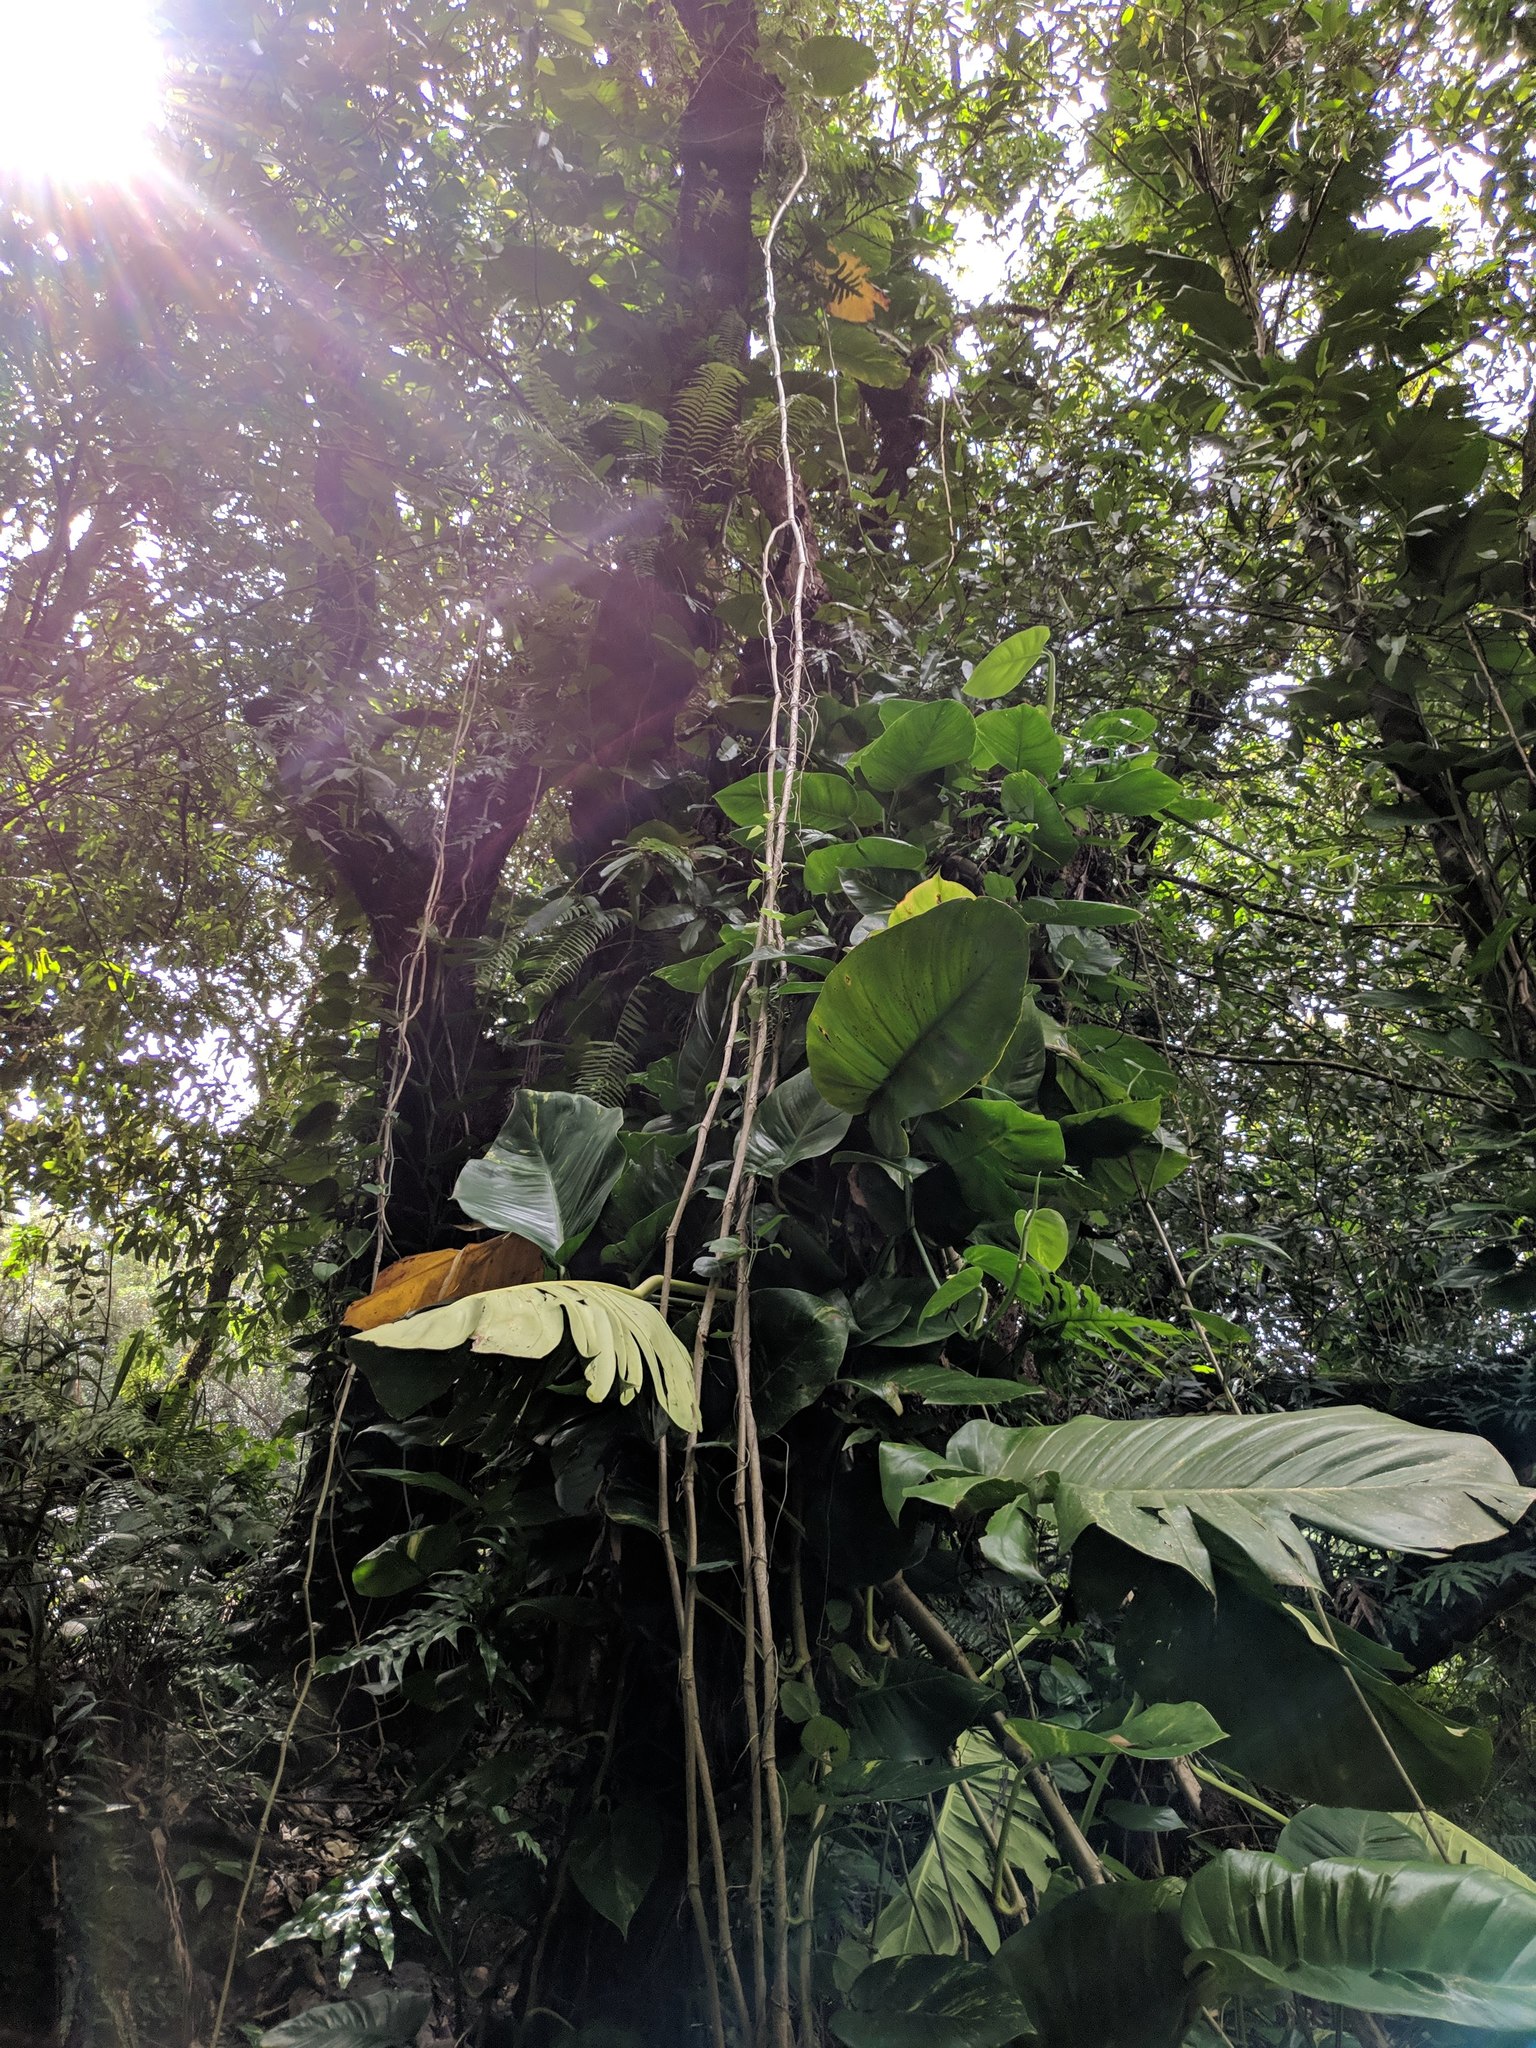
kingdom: Plantae
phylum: Tracheophyta
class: Liliopsida
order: Alismatales
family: Araceae
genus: Epipremnum
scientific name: Epipremnum aureum
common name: Golden hunter's-robe
